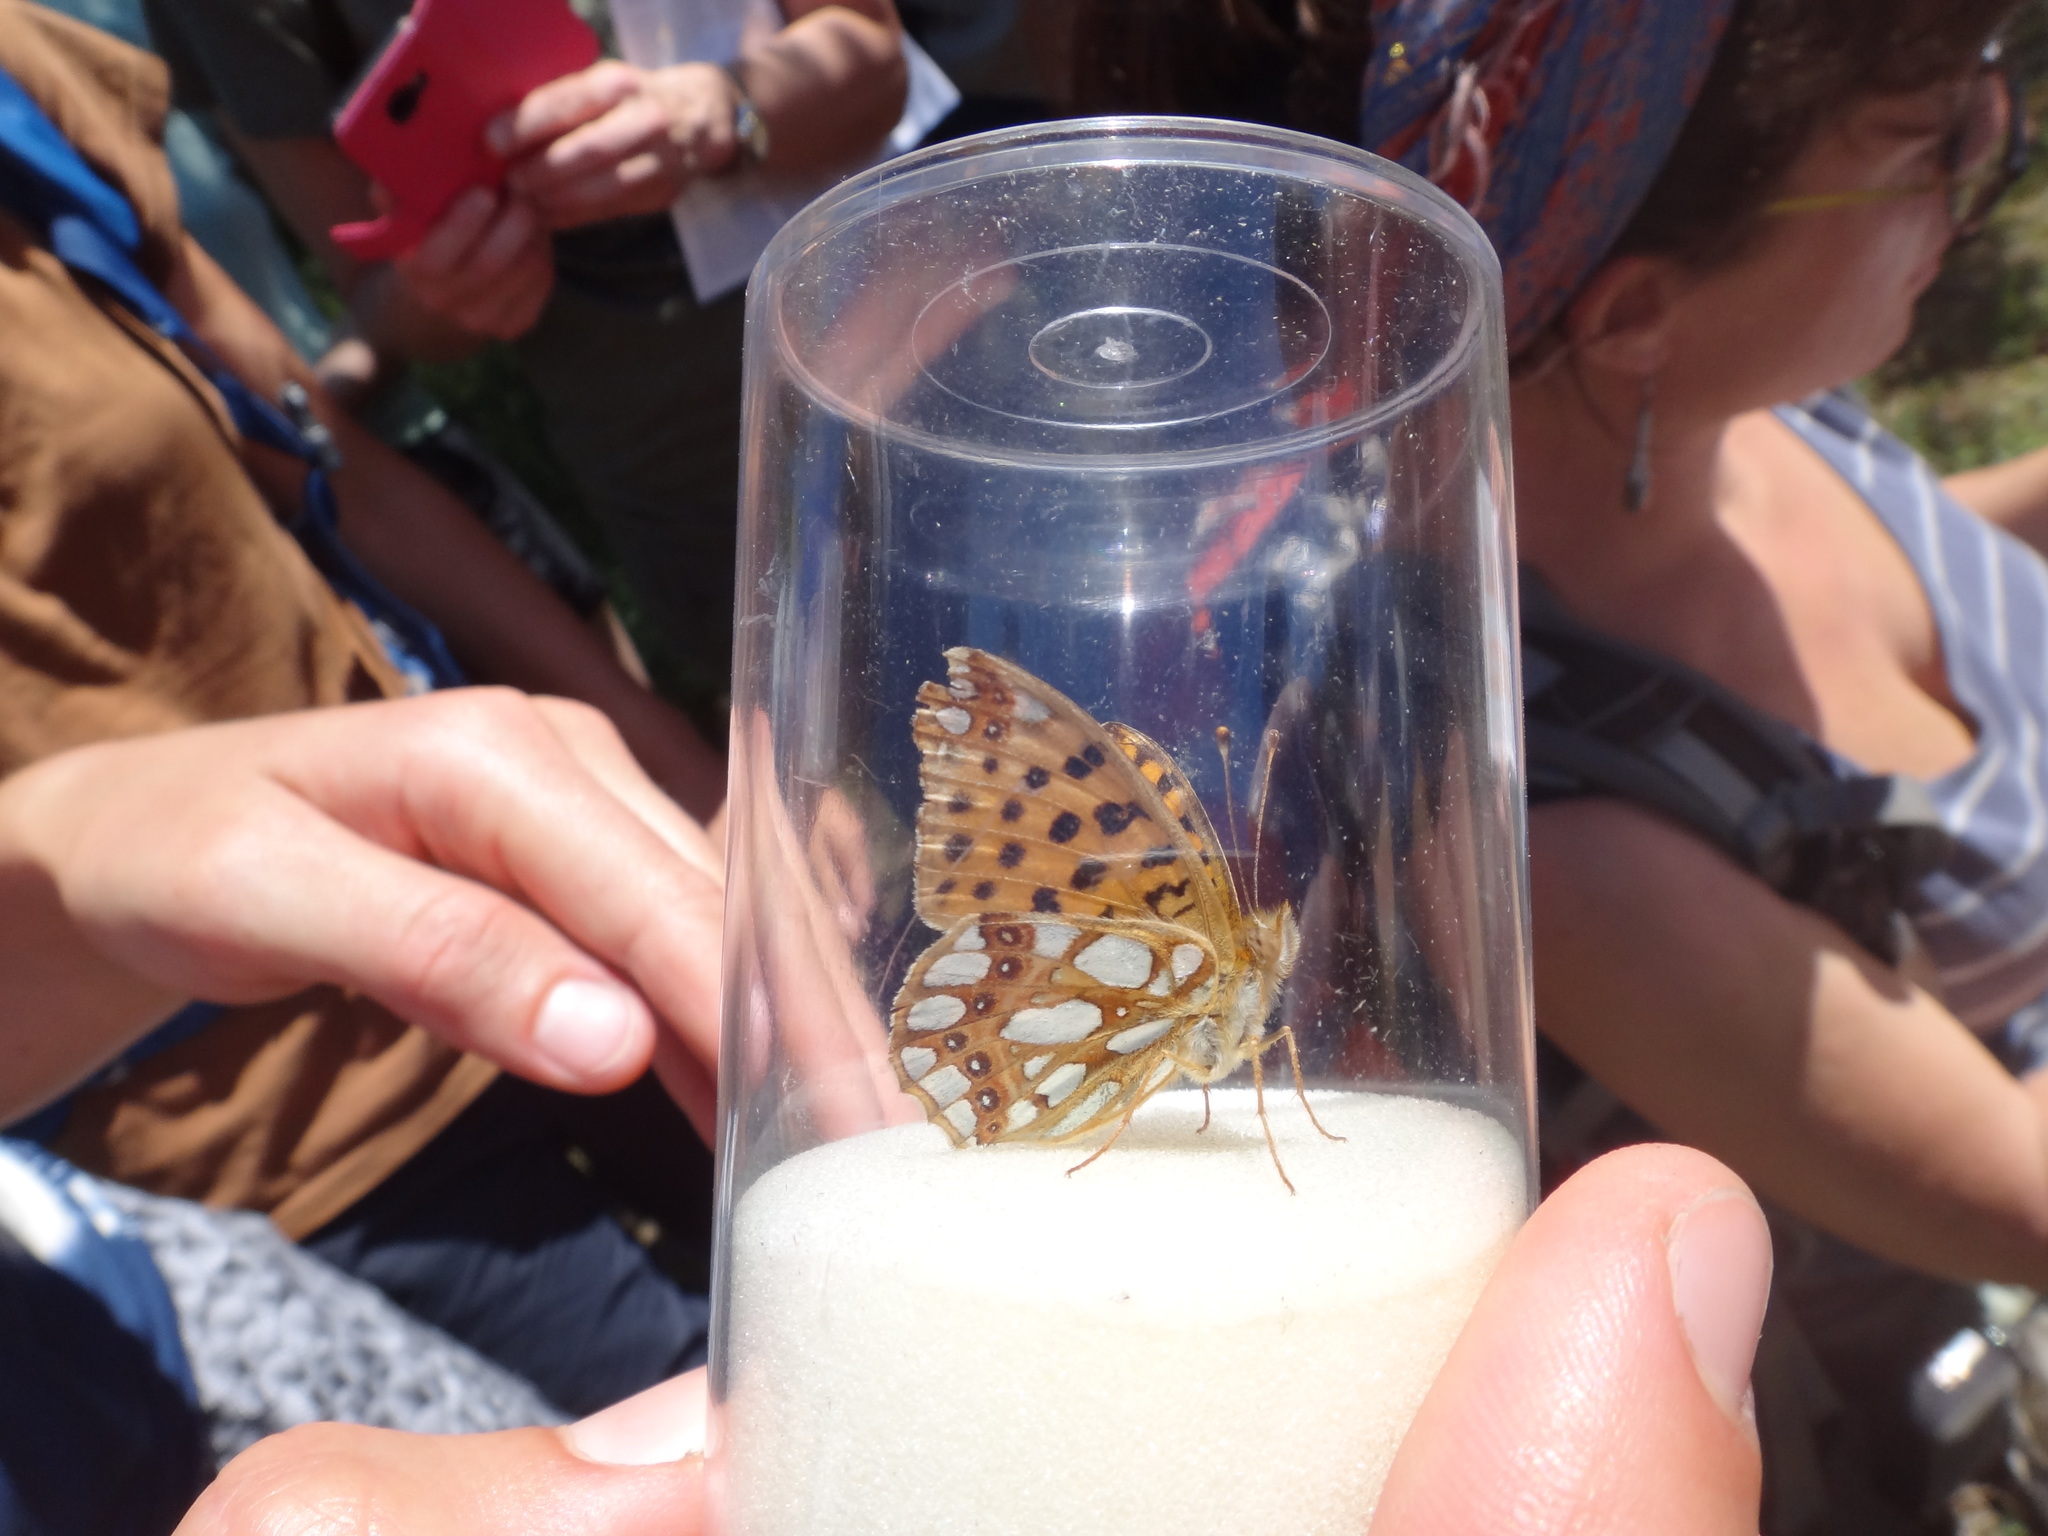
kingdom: Animalia
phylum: Arthropoda
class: Insecta
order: Lepidoptera
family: Nymphalidae
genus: Issoria
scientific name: Issoria lathonia
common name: Queen of spain fritillary
